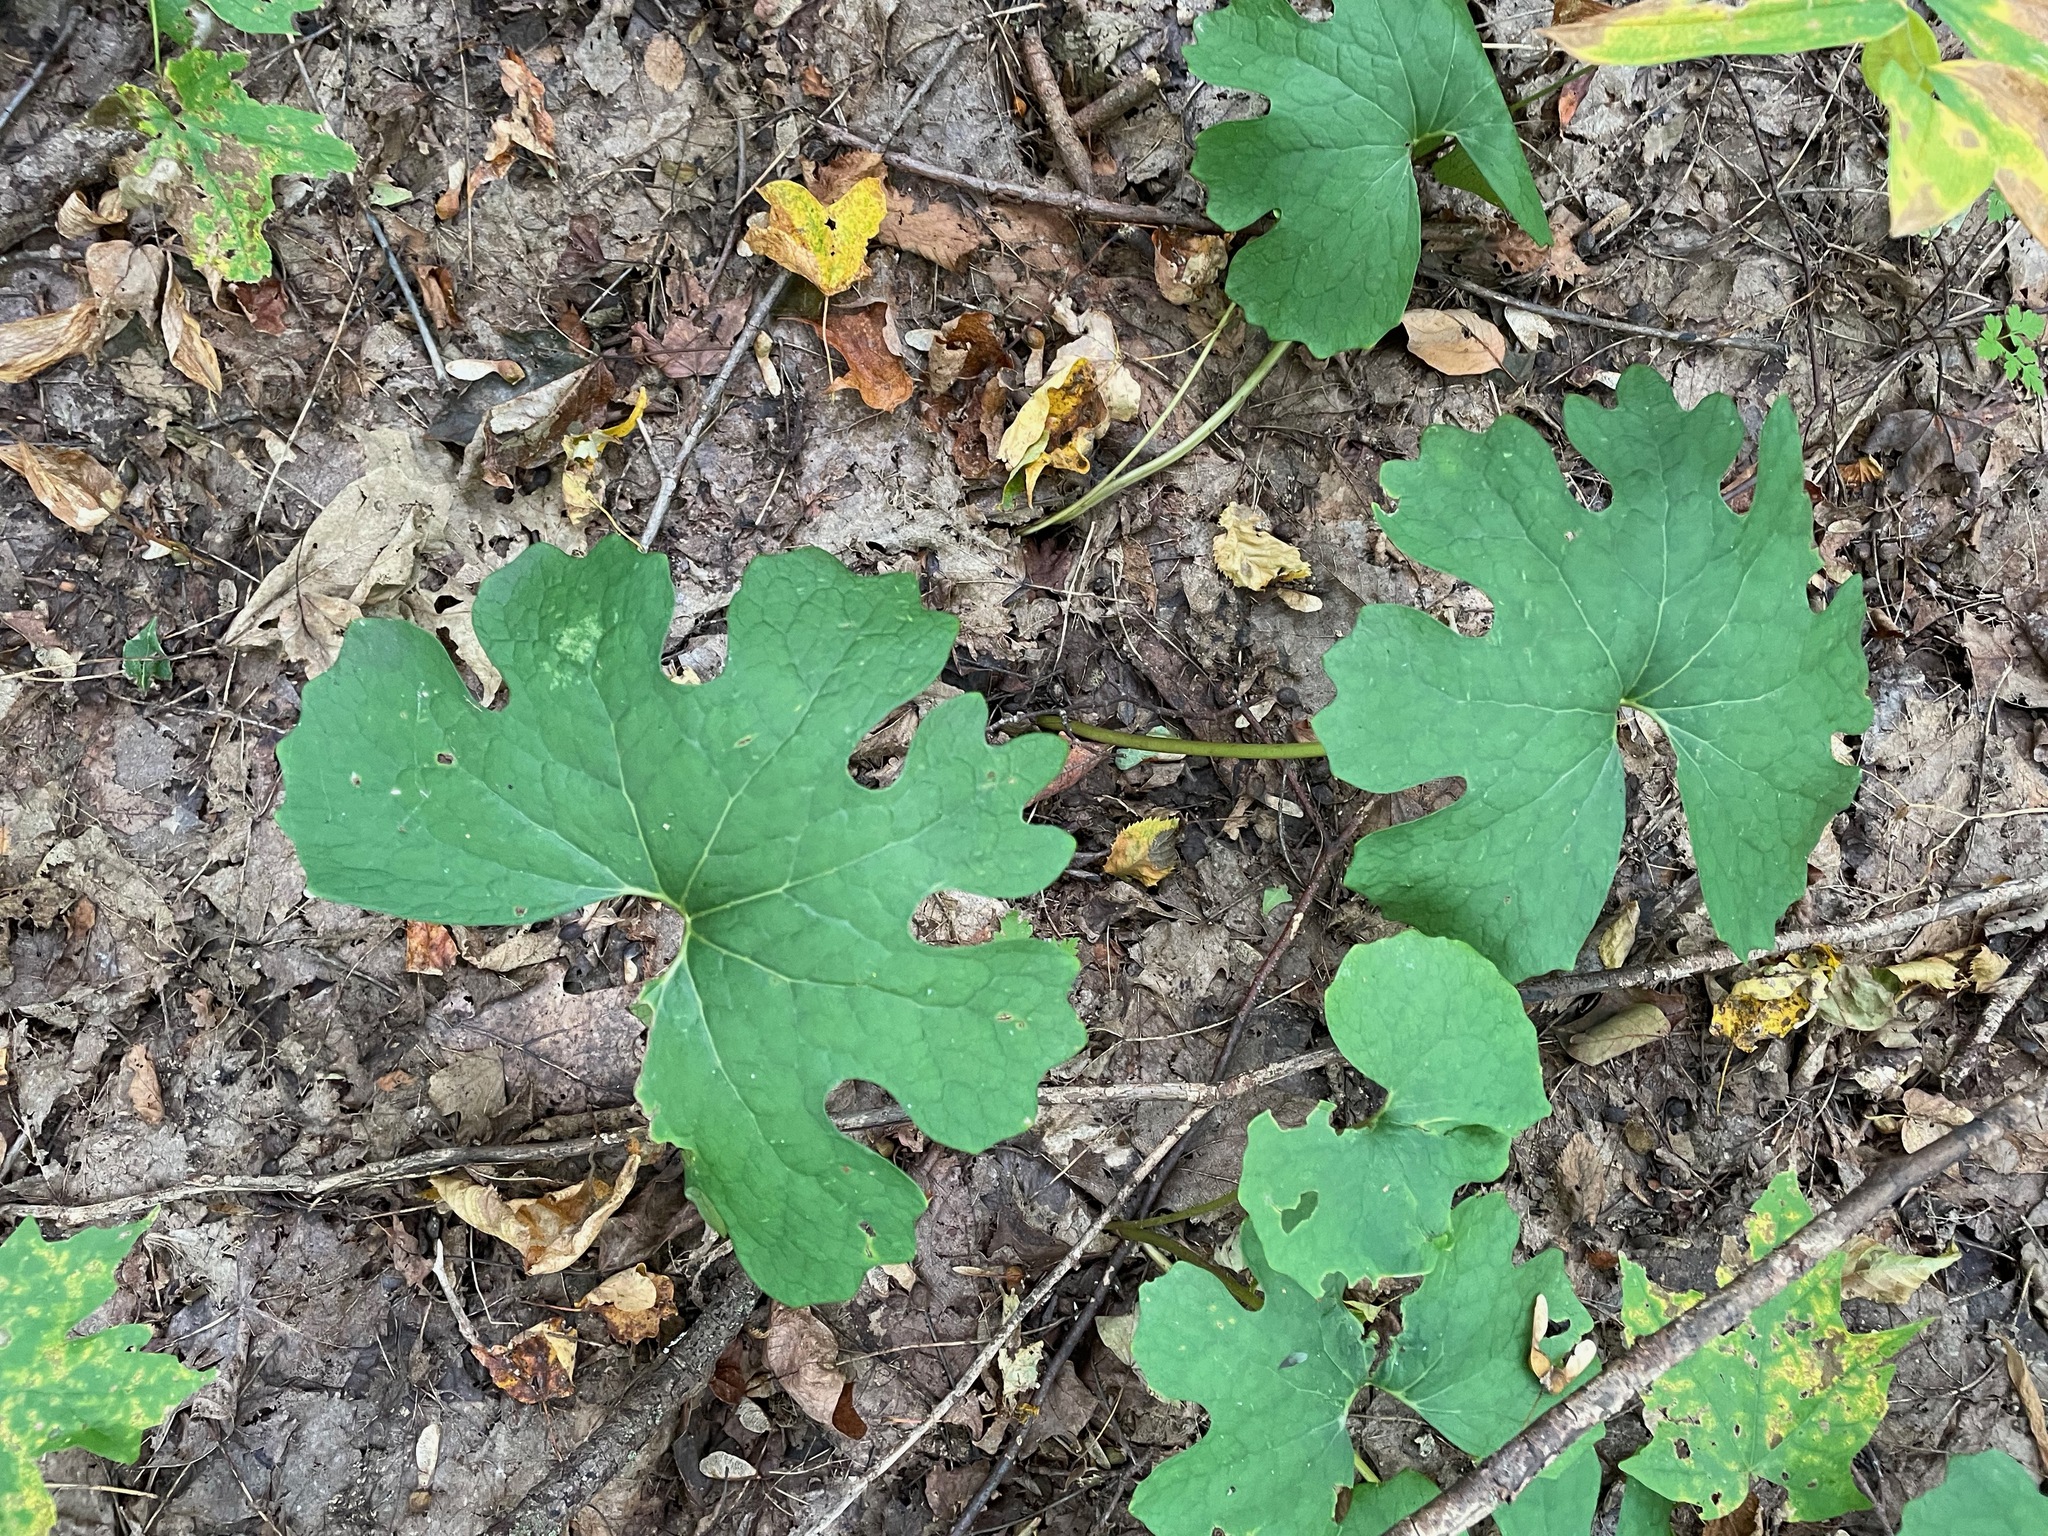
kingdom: Plantae
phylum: Tracheophyta
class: Magnoliopsida
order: Ranunculales
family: Papaveraceae
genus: Sanguinaria
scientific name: Sanguinaria canadensis
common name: Bloodroot
